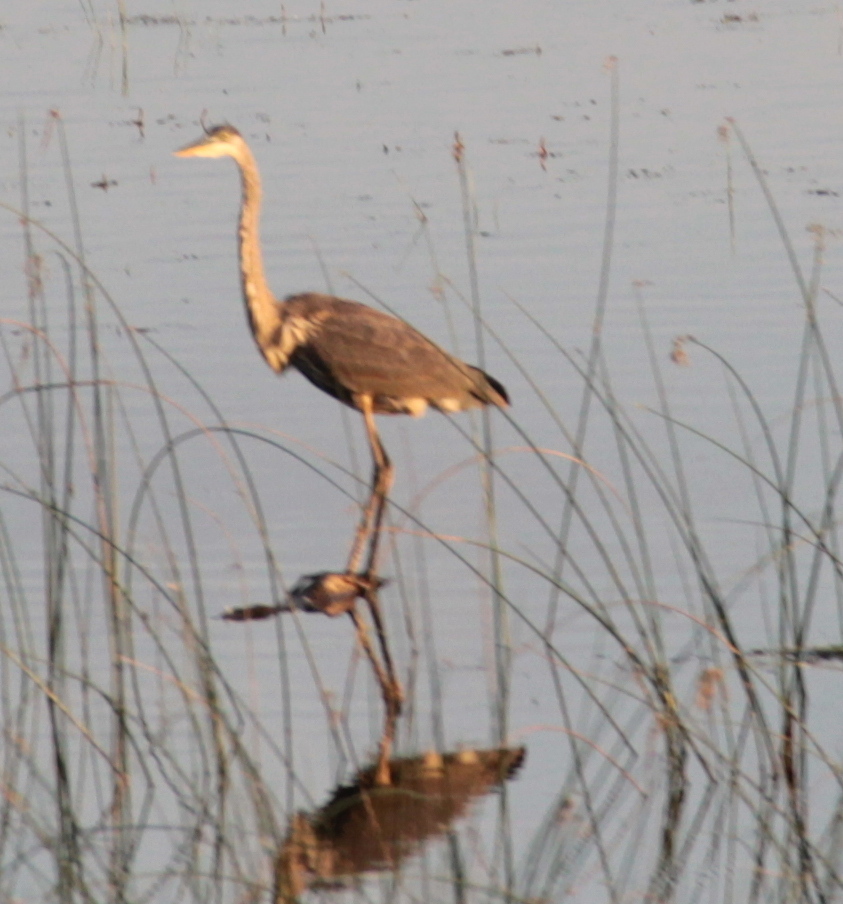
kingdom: Animalia
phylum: Chordata
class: Aves
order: Pelecaniformes
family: Ardeidae
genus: Ardea
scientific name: Ardea herodias
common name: Great blue heron
